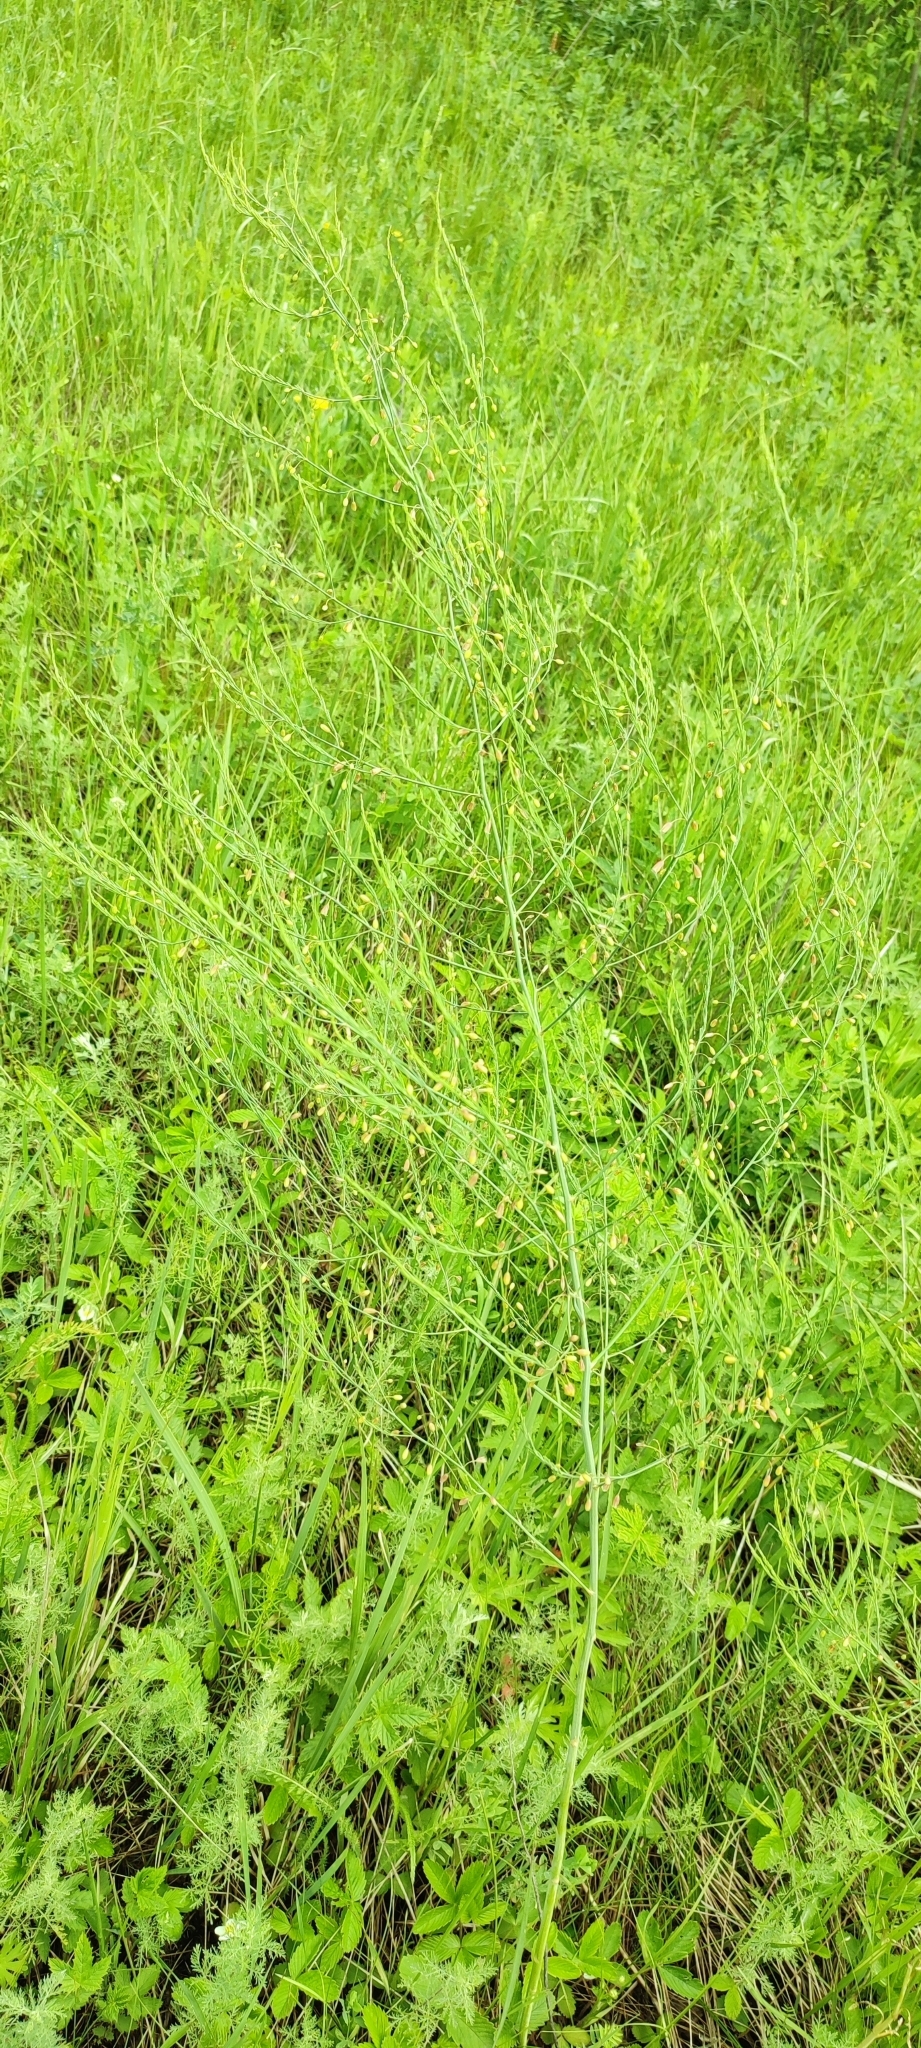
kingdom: Plantae
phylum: Tracheophyta
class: Liliopsida
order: Asparagales
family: Asparagaceae
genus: Asparagus
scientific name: Asparagus officinalis
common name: Garden asparagus
